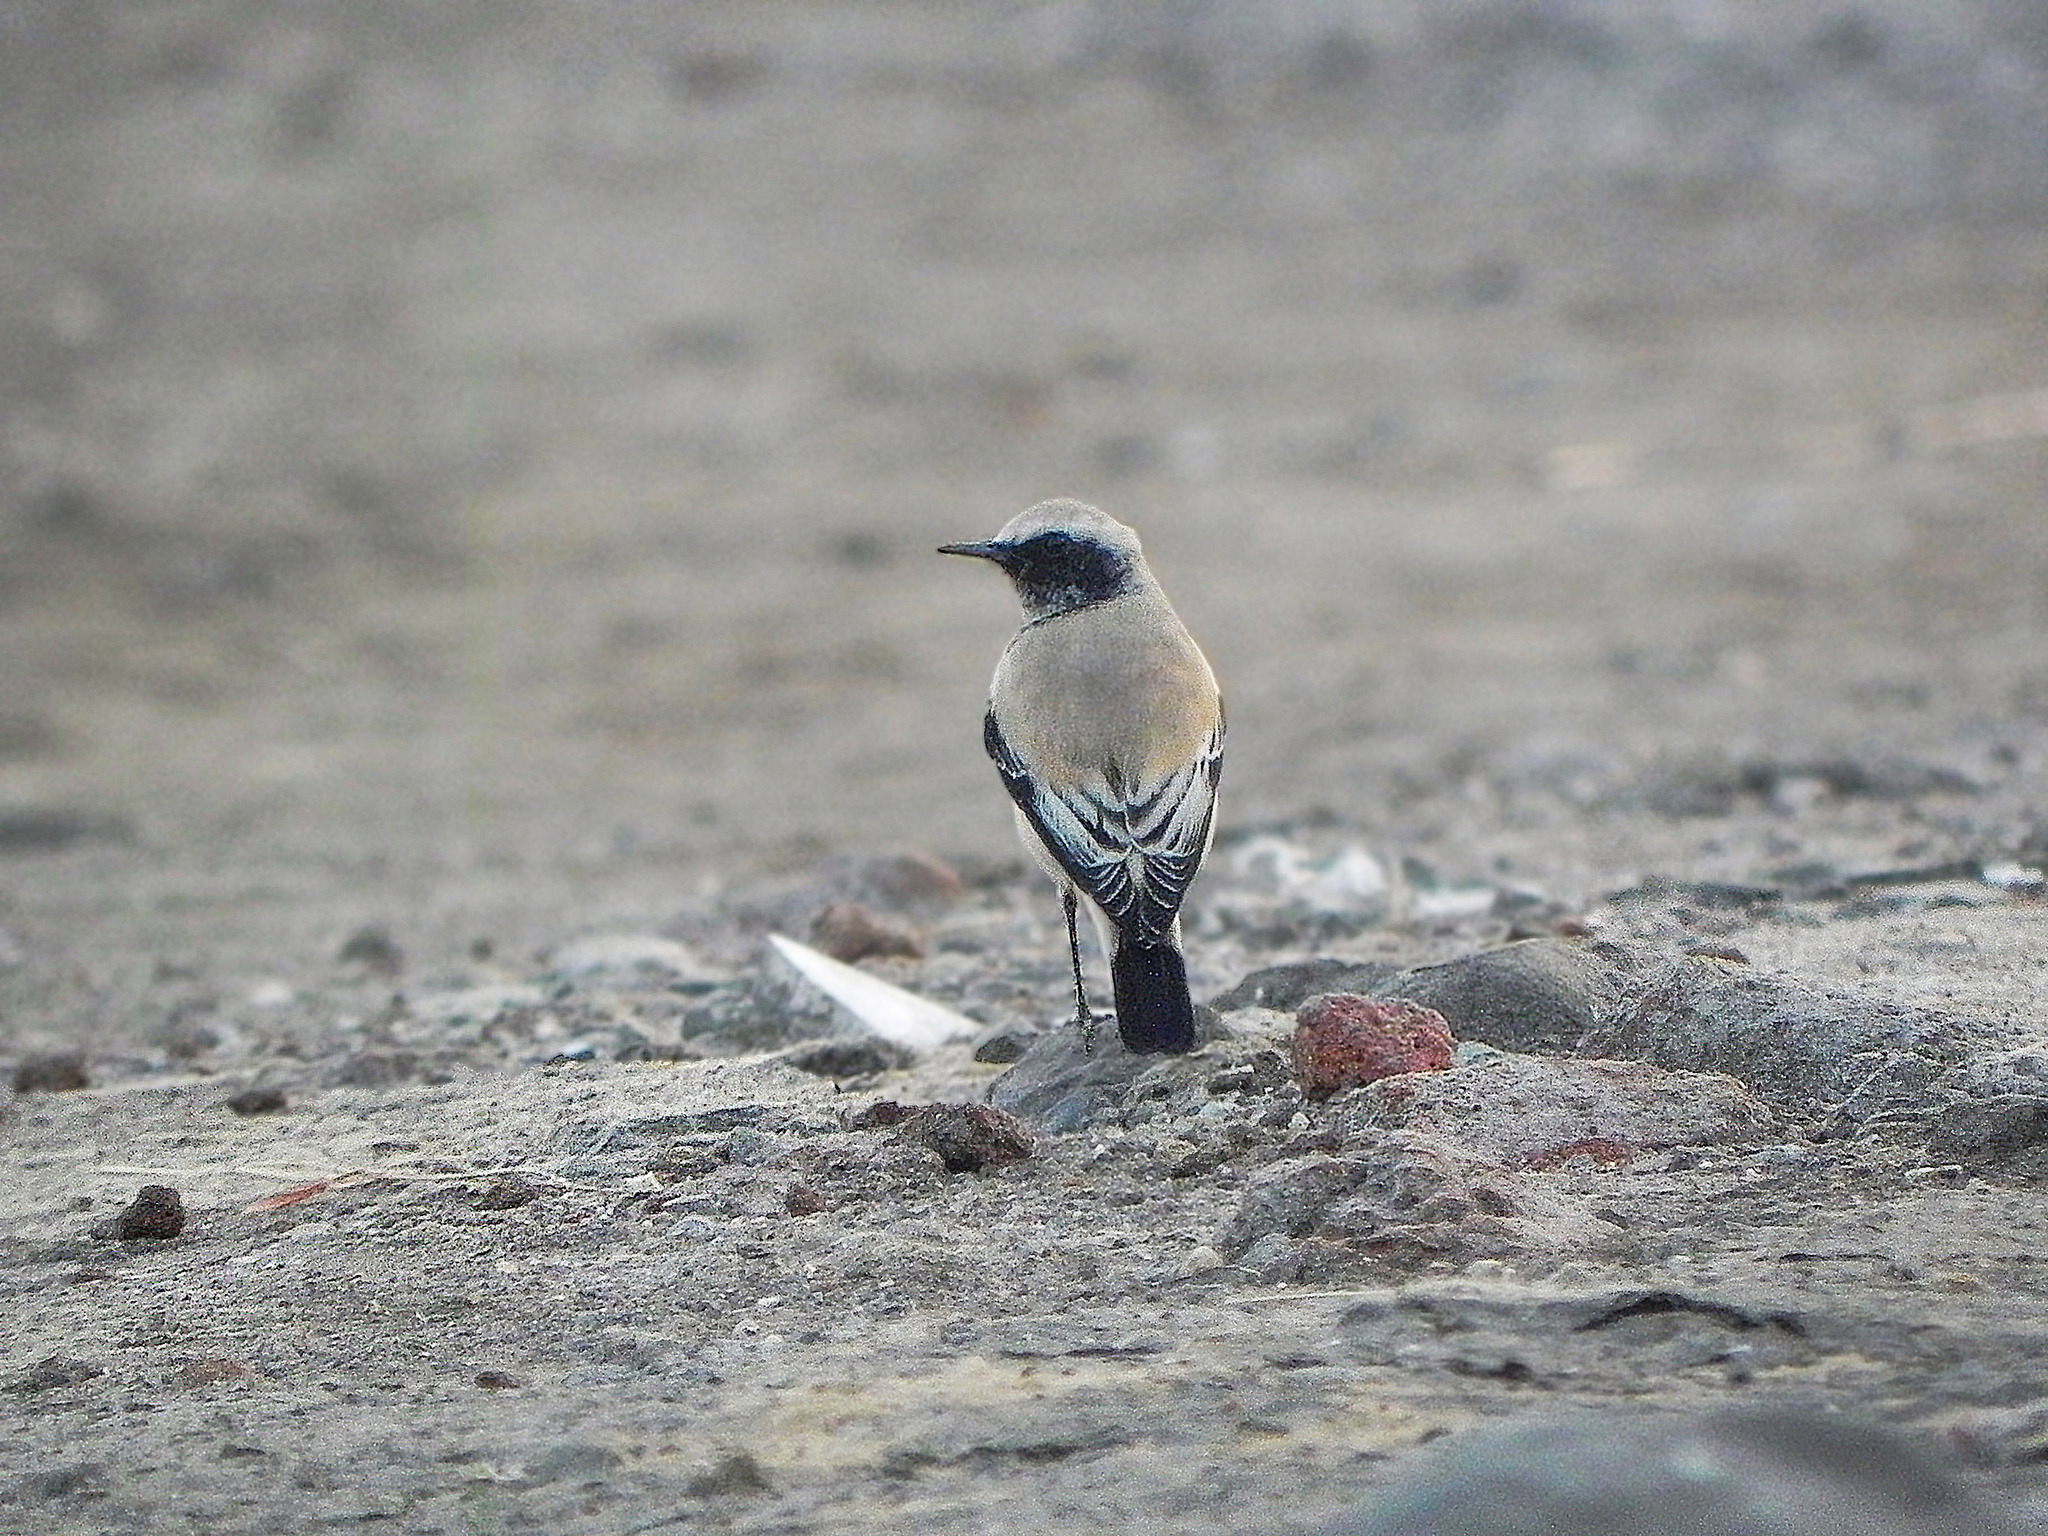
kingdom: Animalia
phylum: Chordata
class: Aves
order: Passeriformes
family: Muscicapidae
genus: Oenanthe
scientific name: Oenanthe deserti
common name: Desert wheatear
